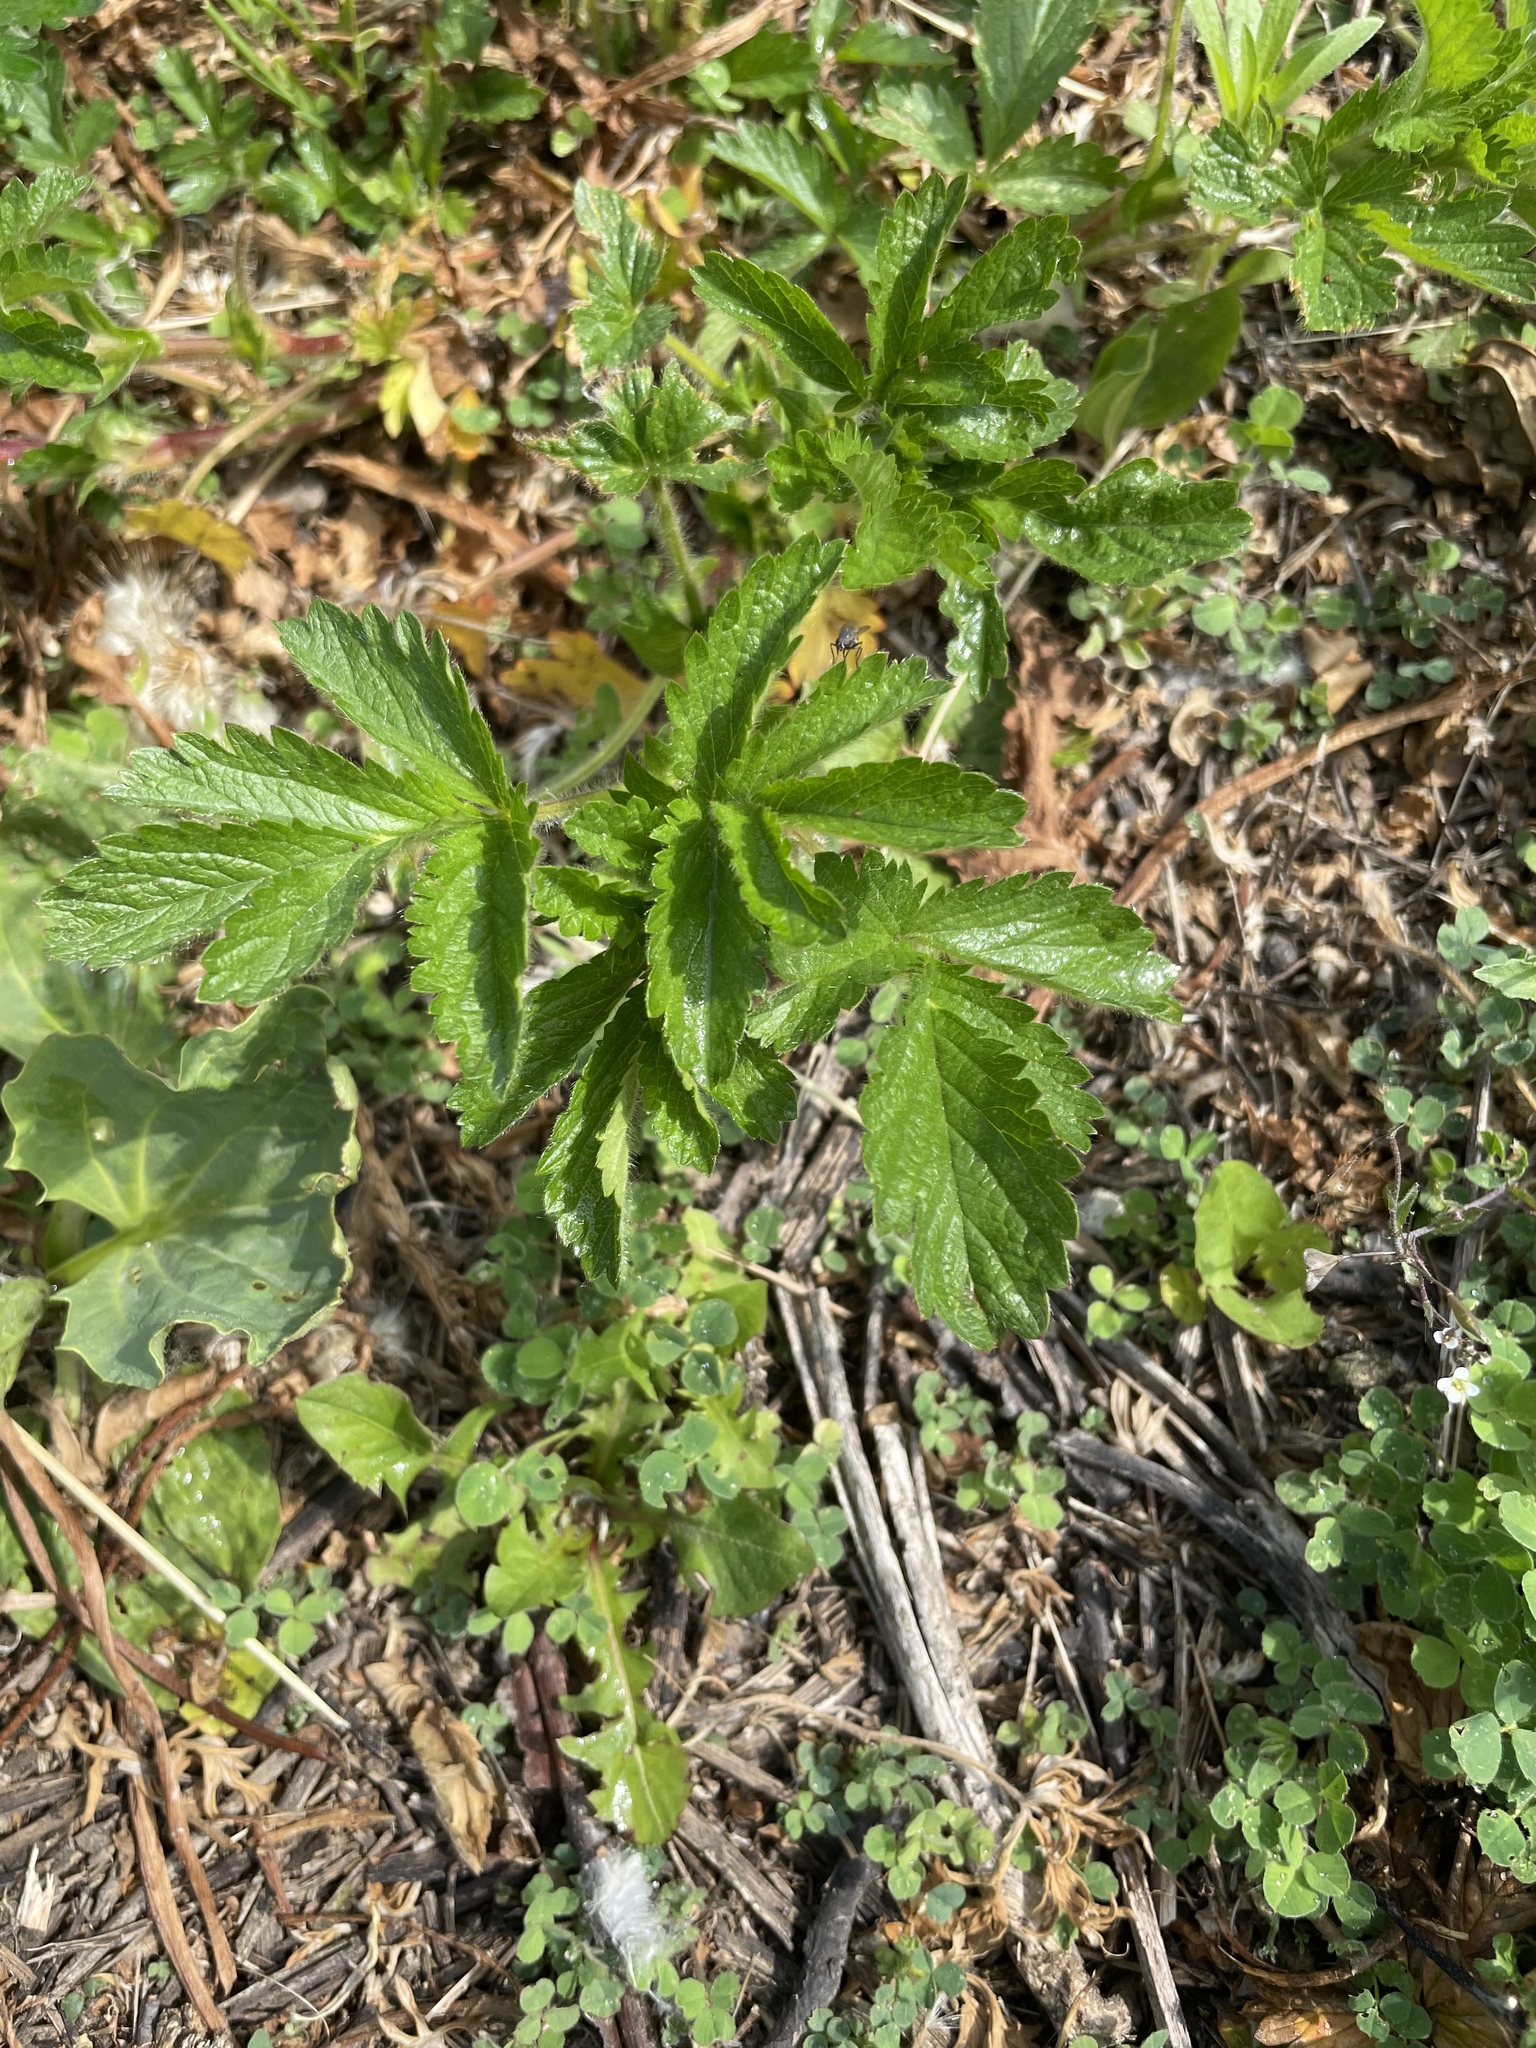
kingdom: Plantae
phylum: Tracheophyta
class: Magnoliopsida
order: Rosales
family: Rosaceae
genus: Potentilla
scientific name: Potentilla norvegica
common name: Ternate-leaved cinquefoil
